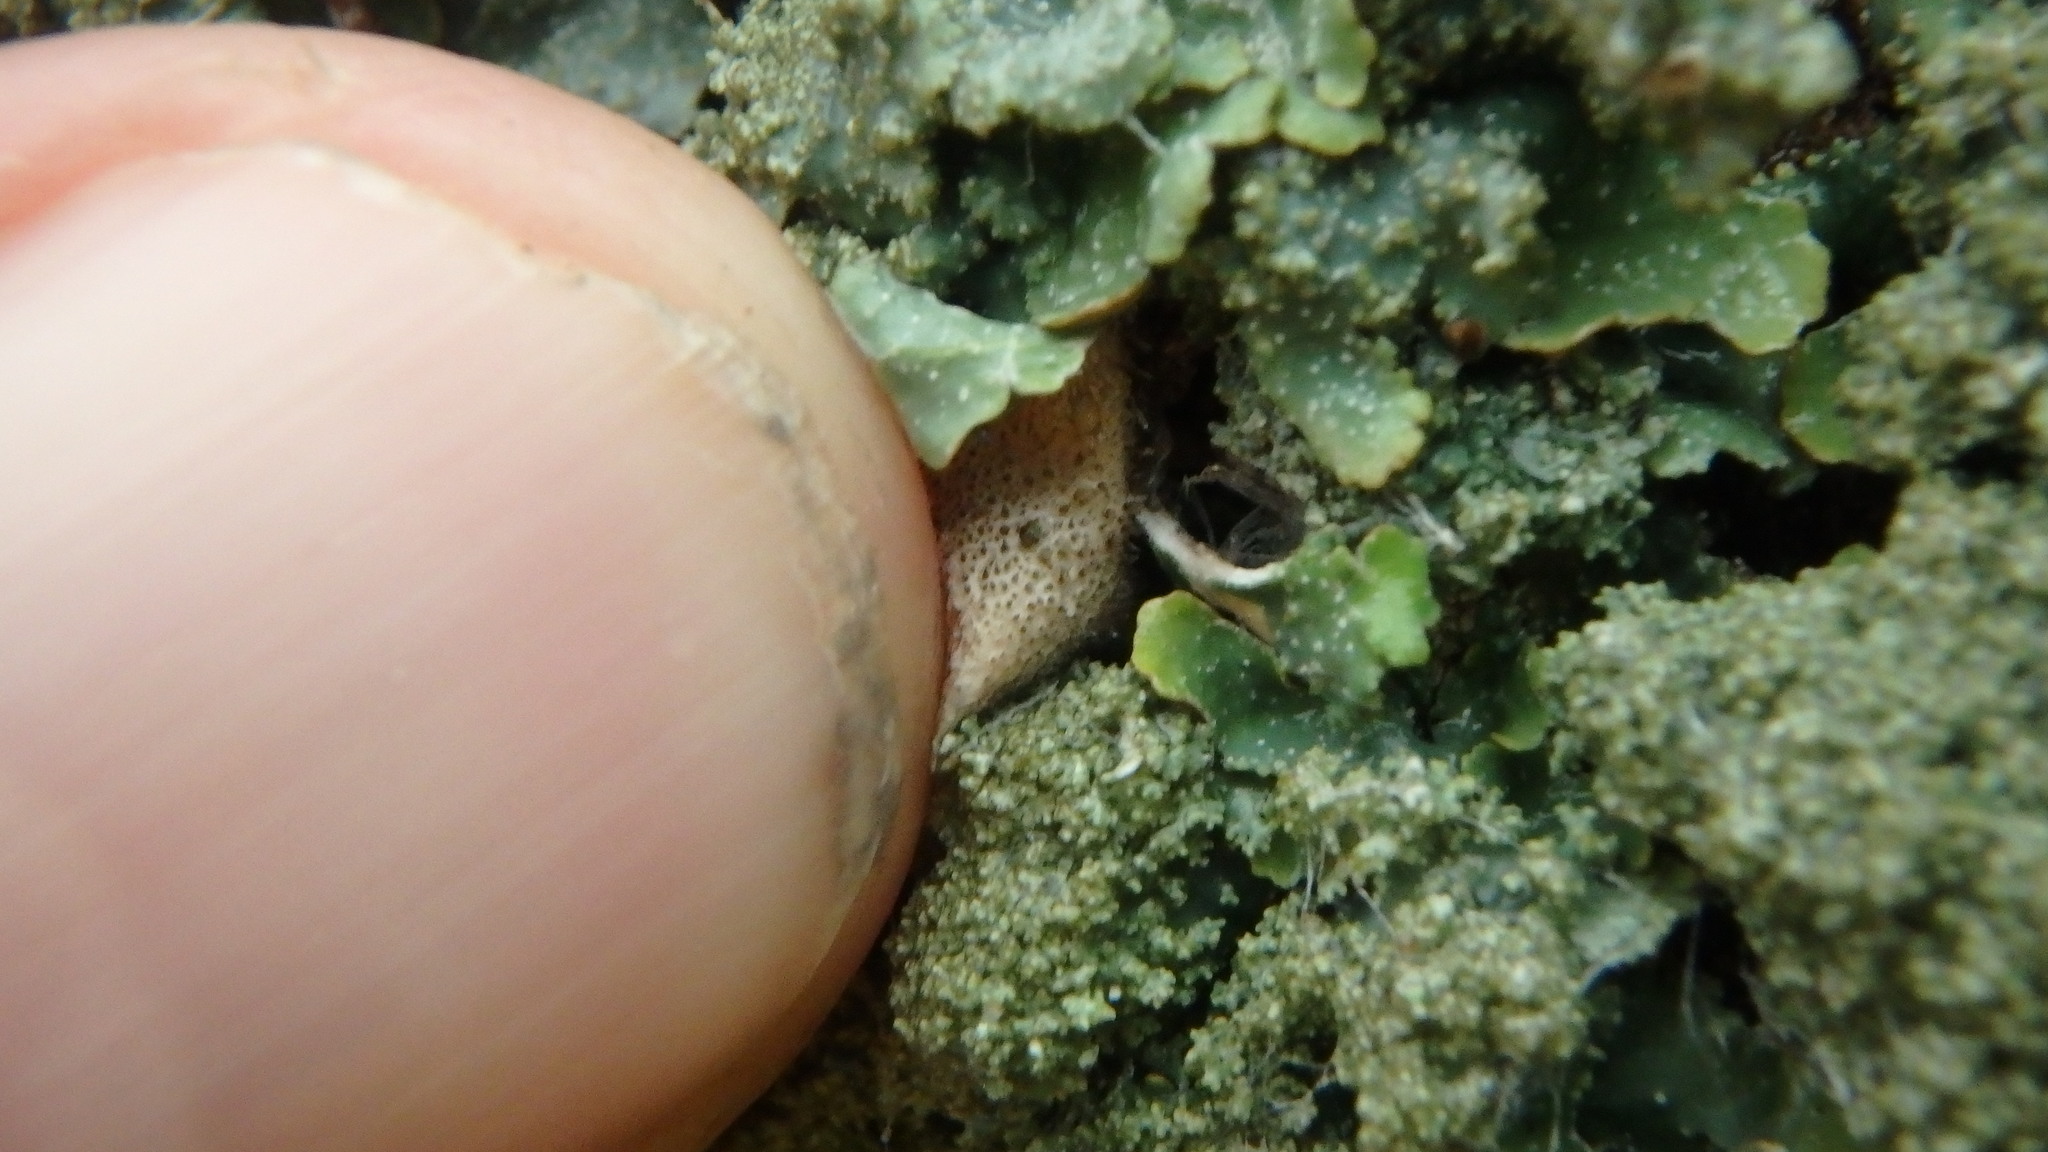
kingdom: Fungi
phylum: Ascomycota
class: Lecanoromycetes
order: Lecanorales
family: Parmeliaceae
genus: Punctelia
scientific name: Punctelia rudecta
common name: Rough speckled shield lichen
